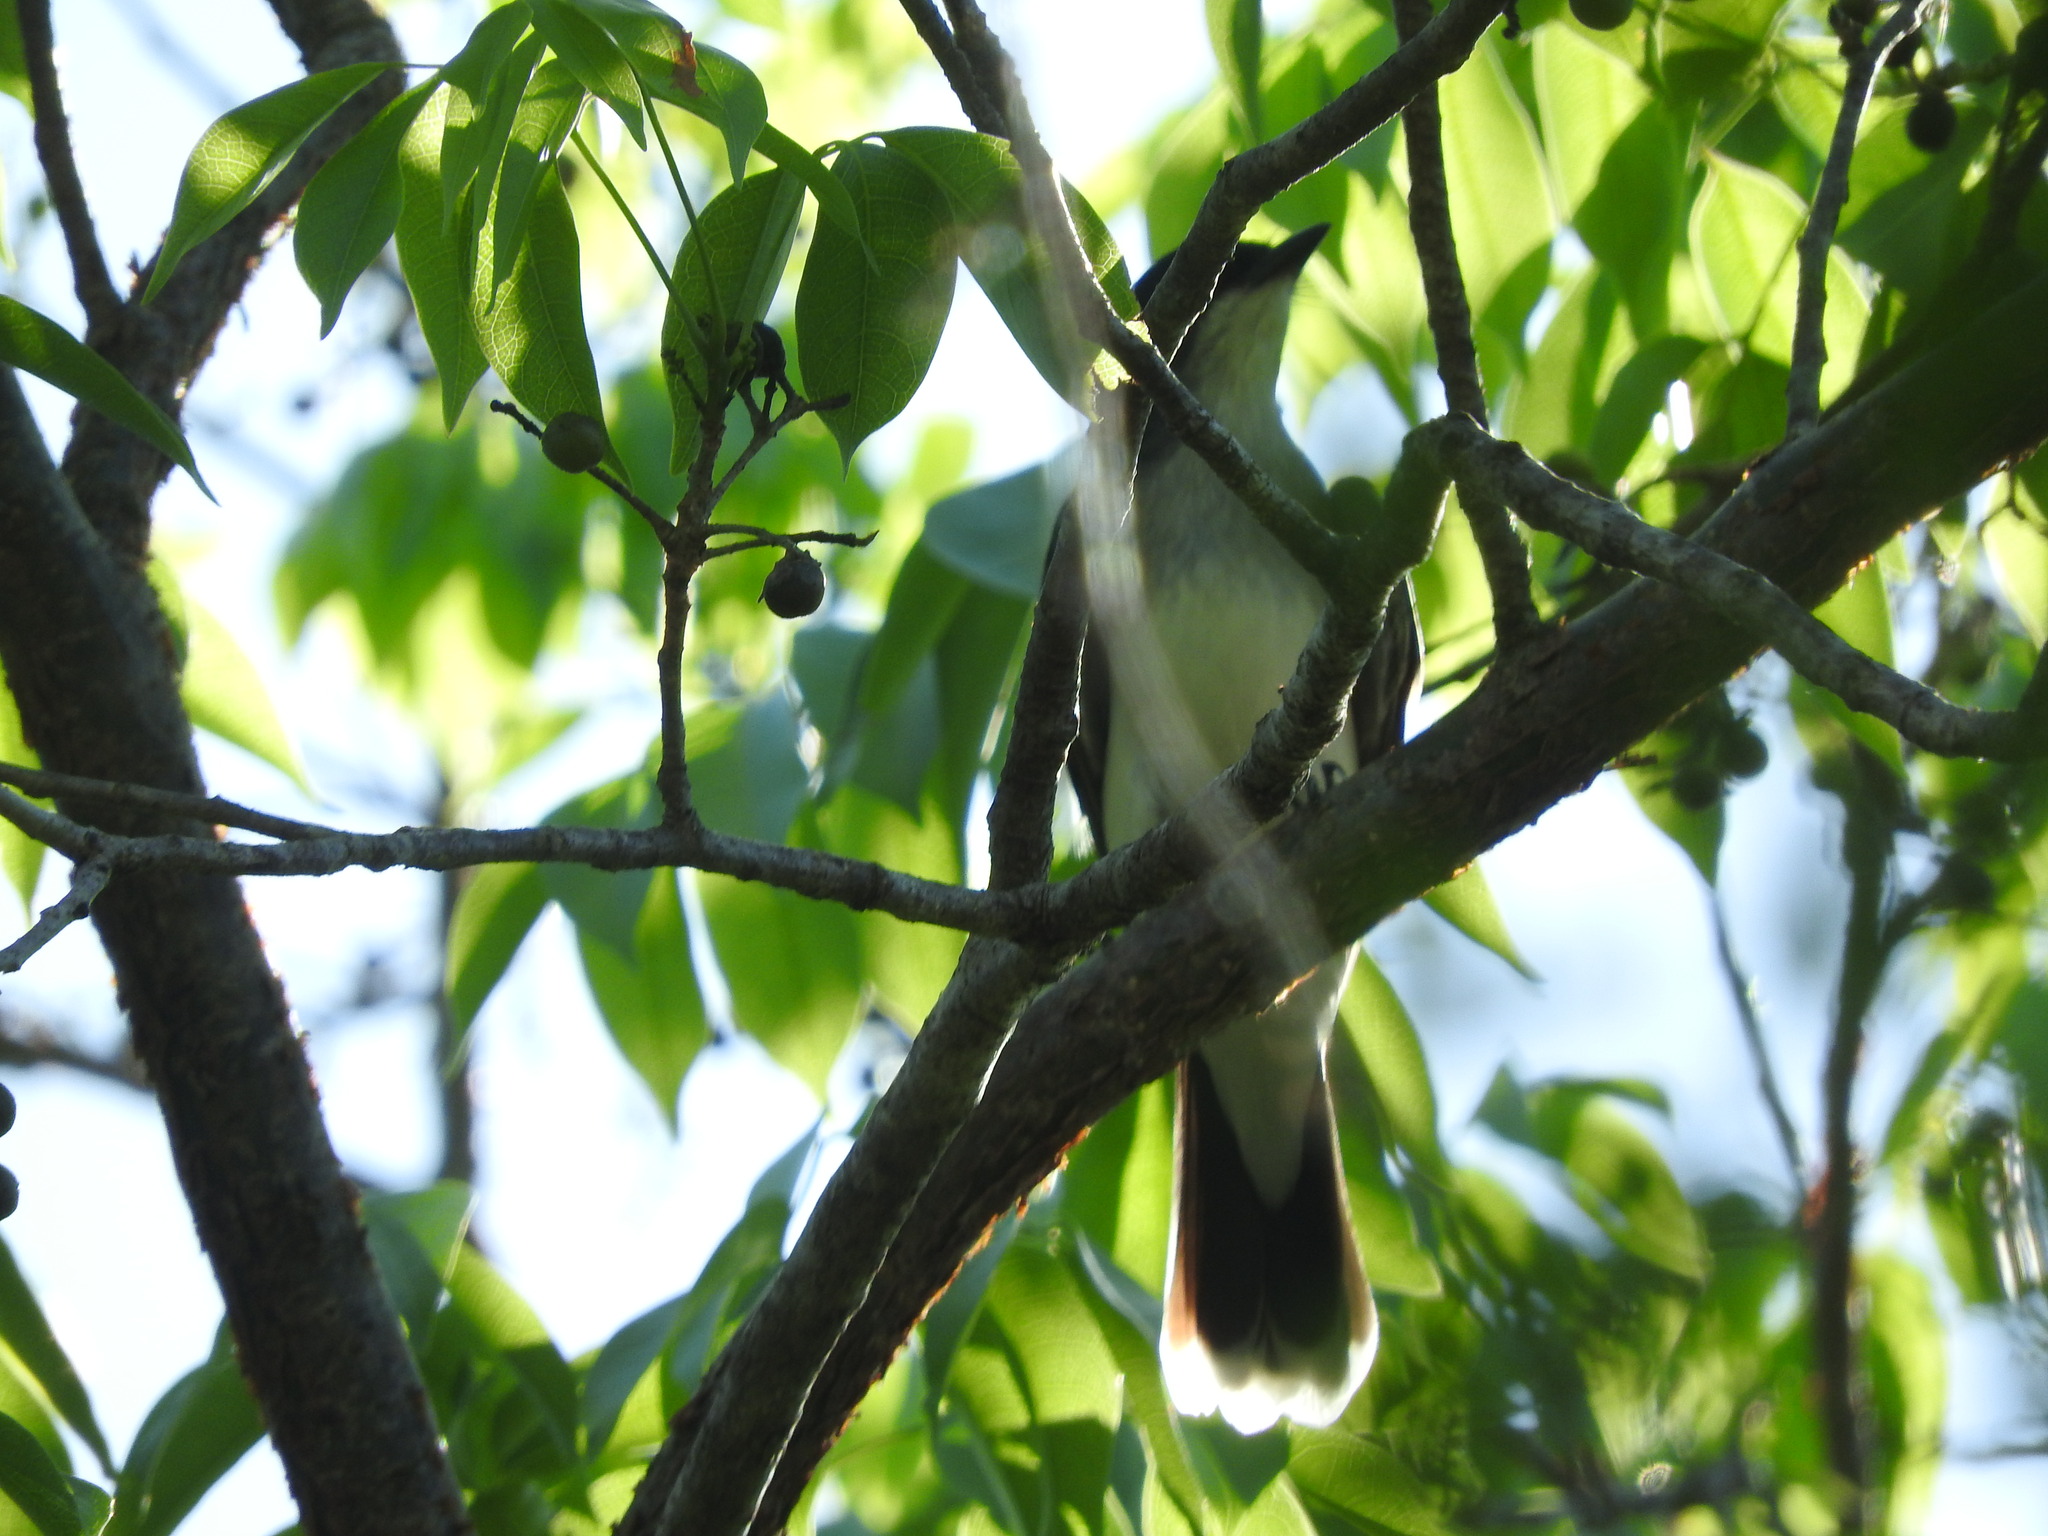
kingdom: Animalia
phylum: Chordata
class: Aves
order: Passeriformes
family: Tyrannidae
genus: Tyrannus
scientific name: Tyrannus tyrannus
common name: Eastern kingbird
